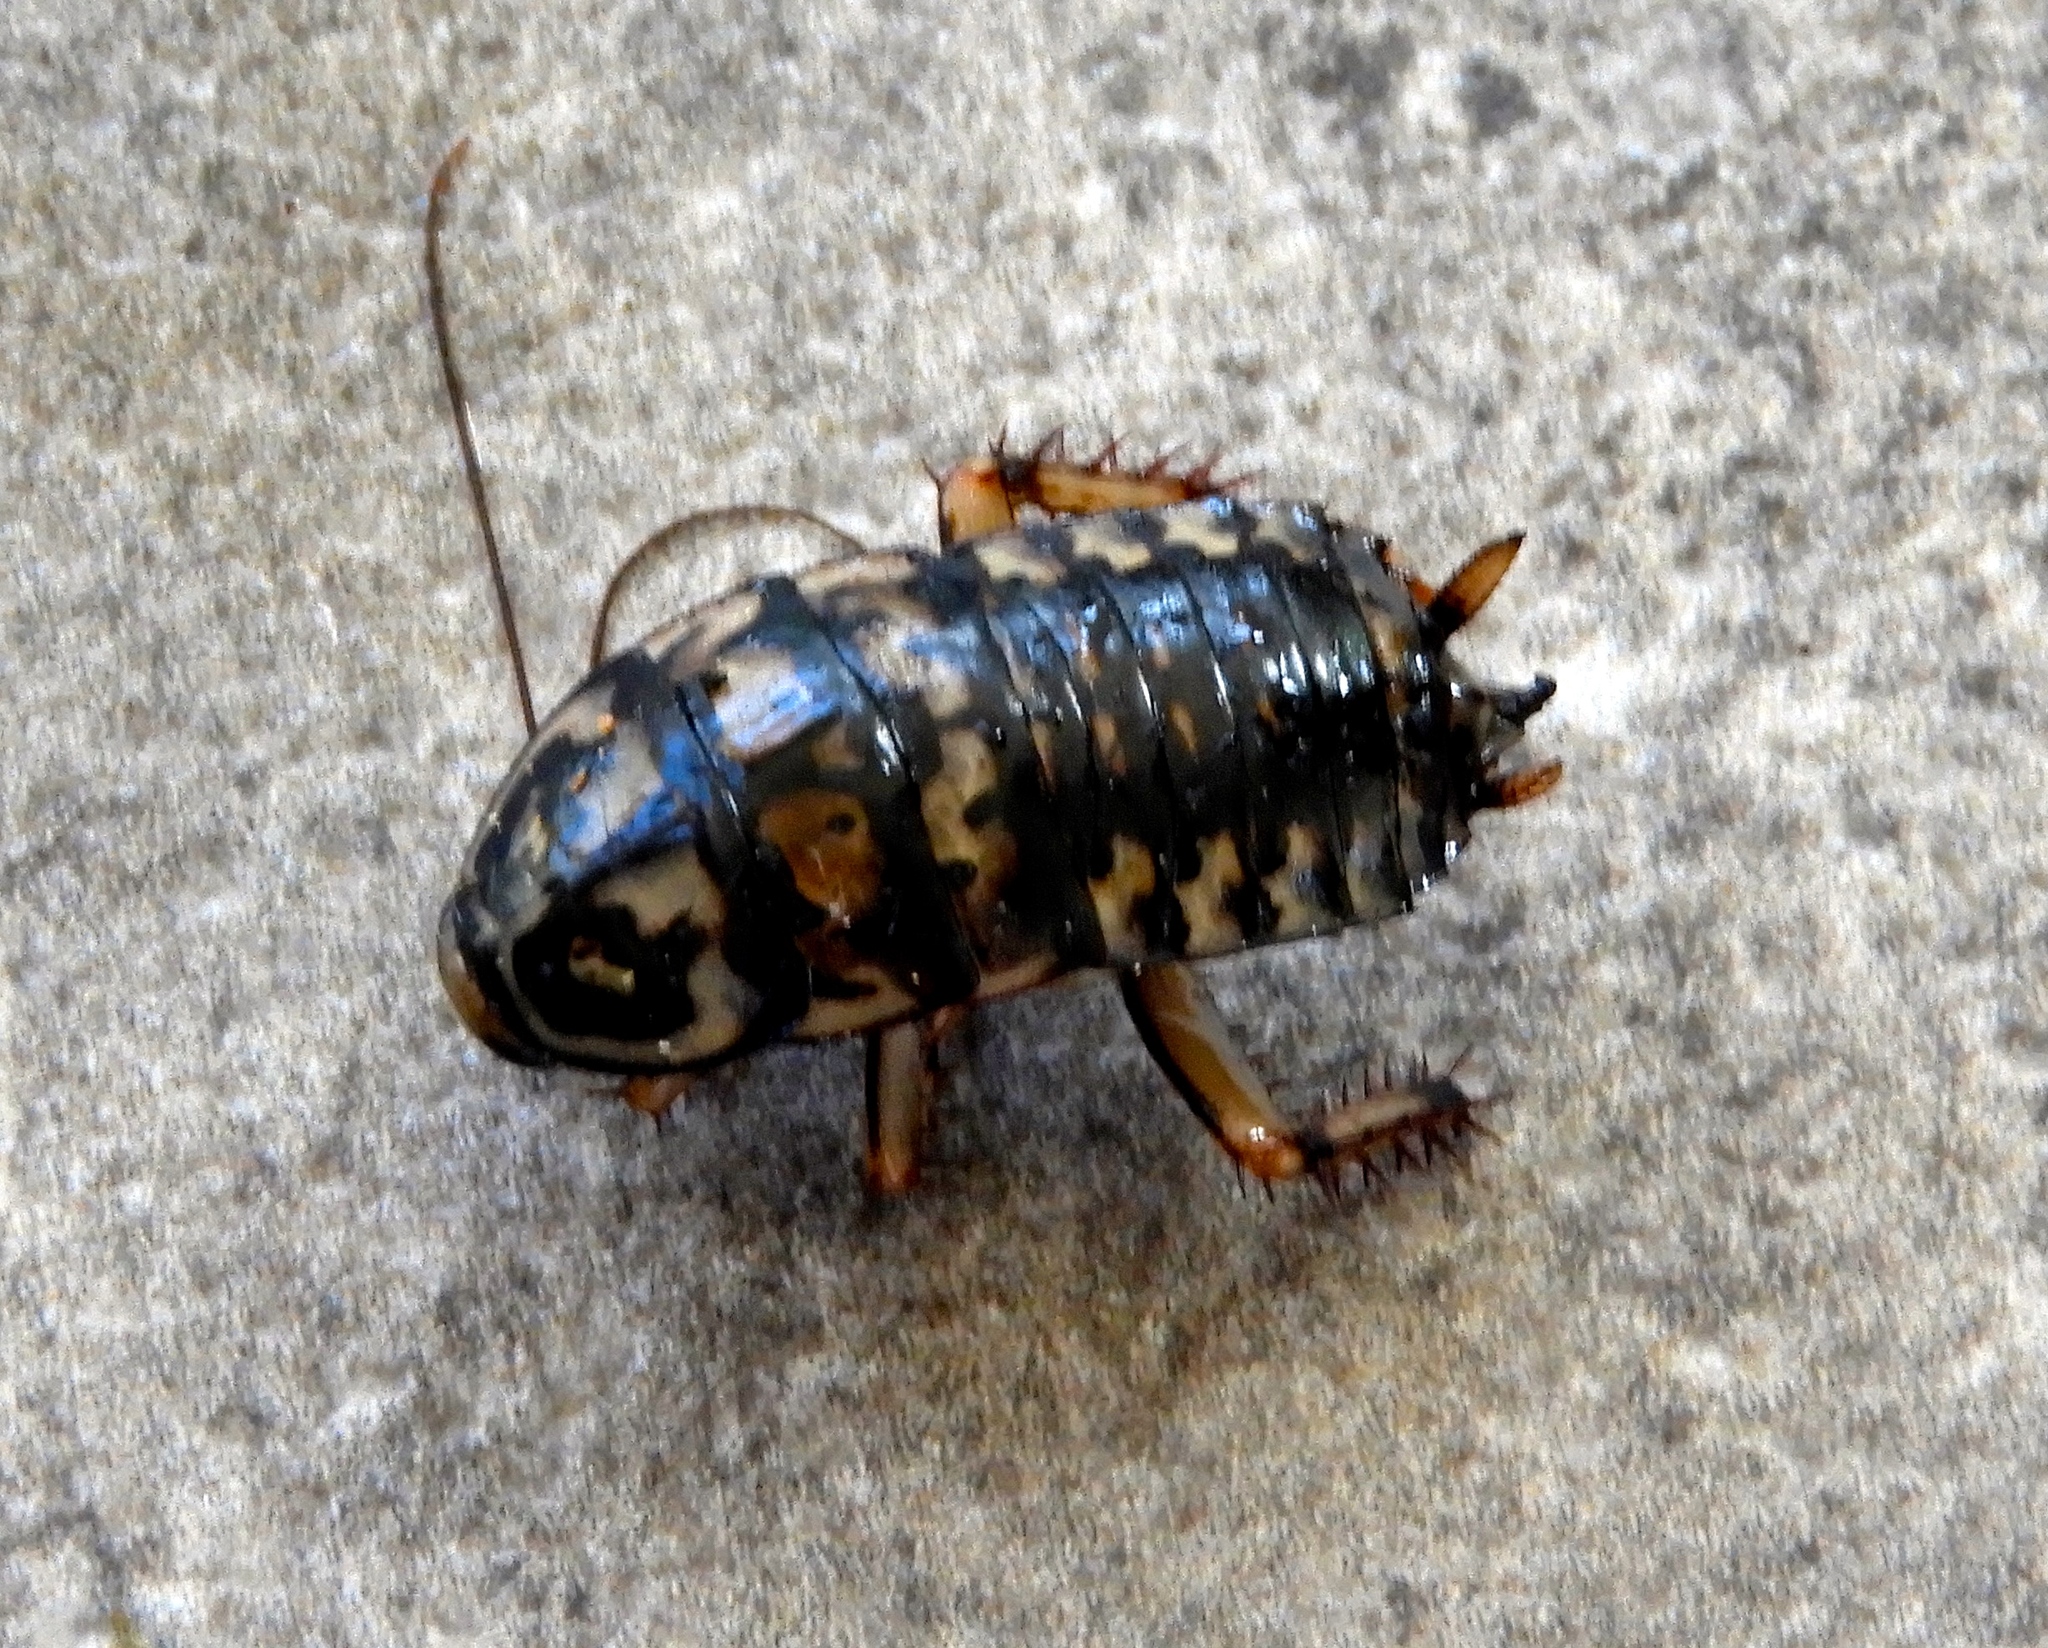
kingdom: Animalia
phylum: Arthropoda
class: Insecta
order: Blattodea
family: Blattidae
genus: Neostylopyga
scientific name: Neostylopyga rhombifolia
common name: Harlequin cockroach
